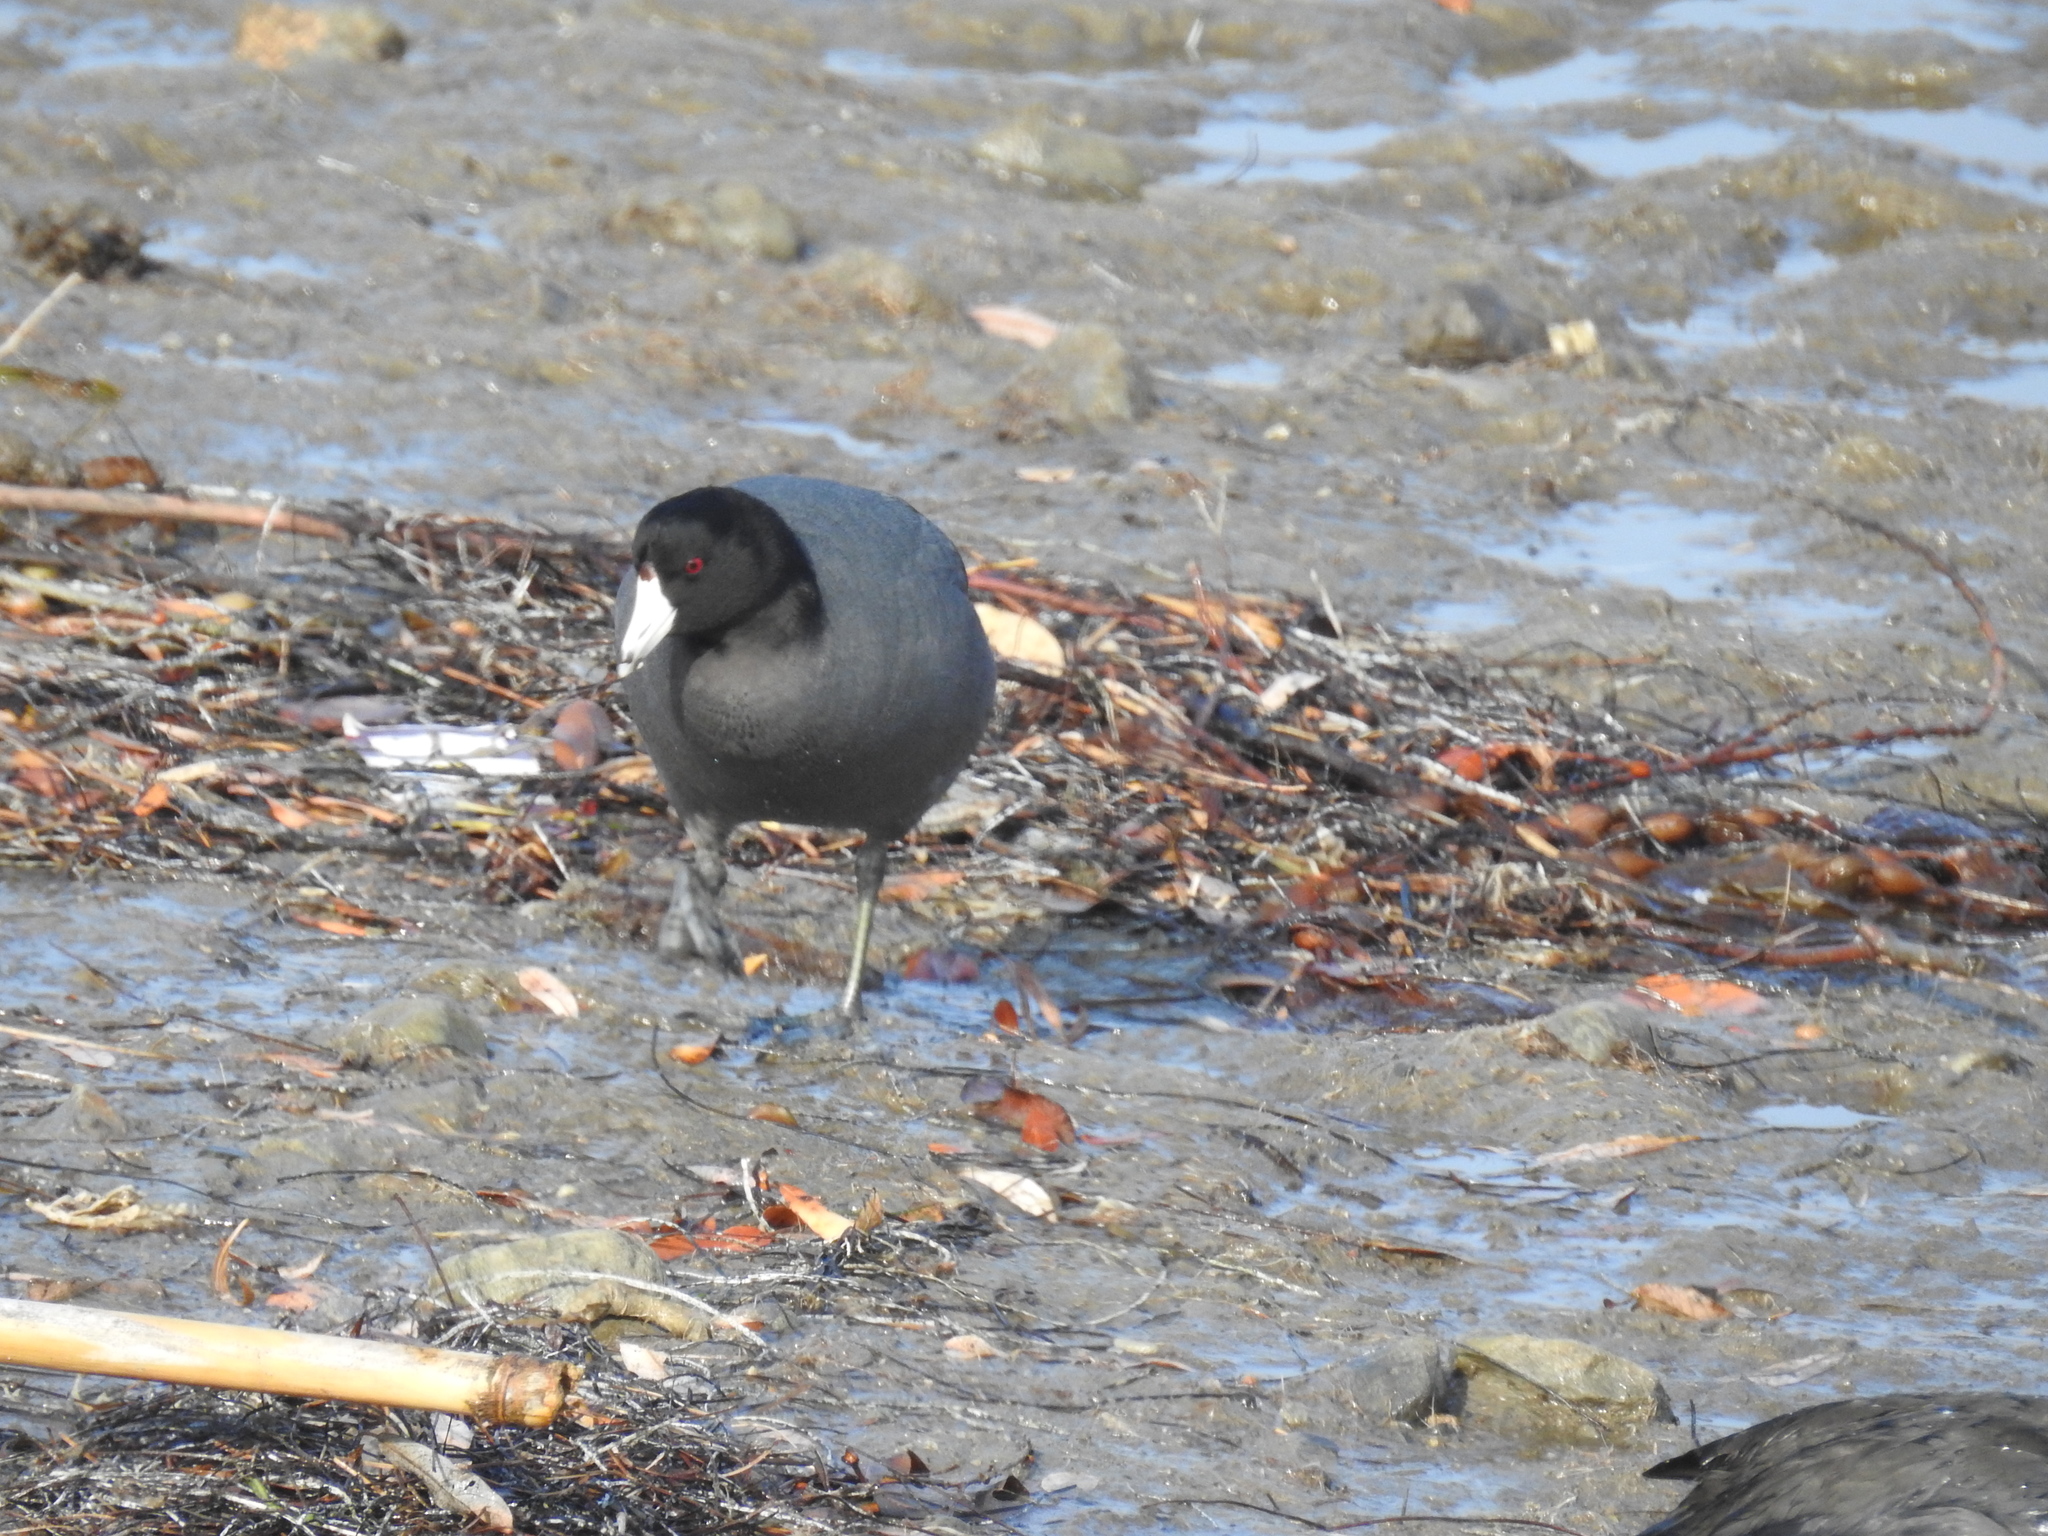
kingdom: Animalia
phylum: Chordata
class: Aves
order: Gruiformes
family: Rallidae
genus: Fulica
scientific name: Fulica americana
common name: American coot
